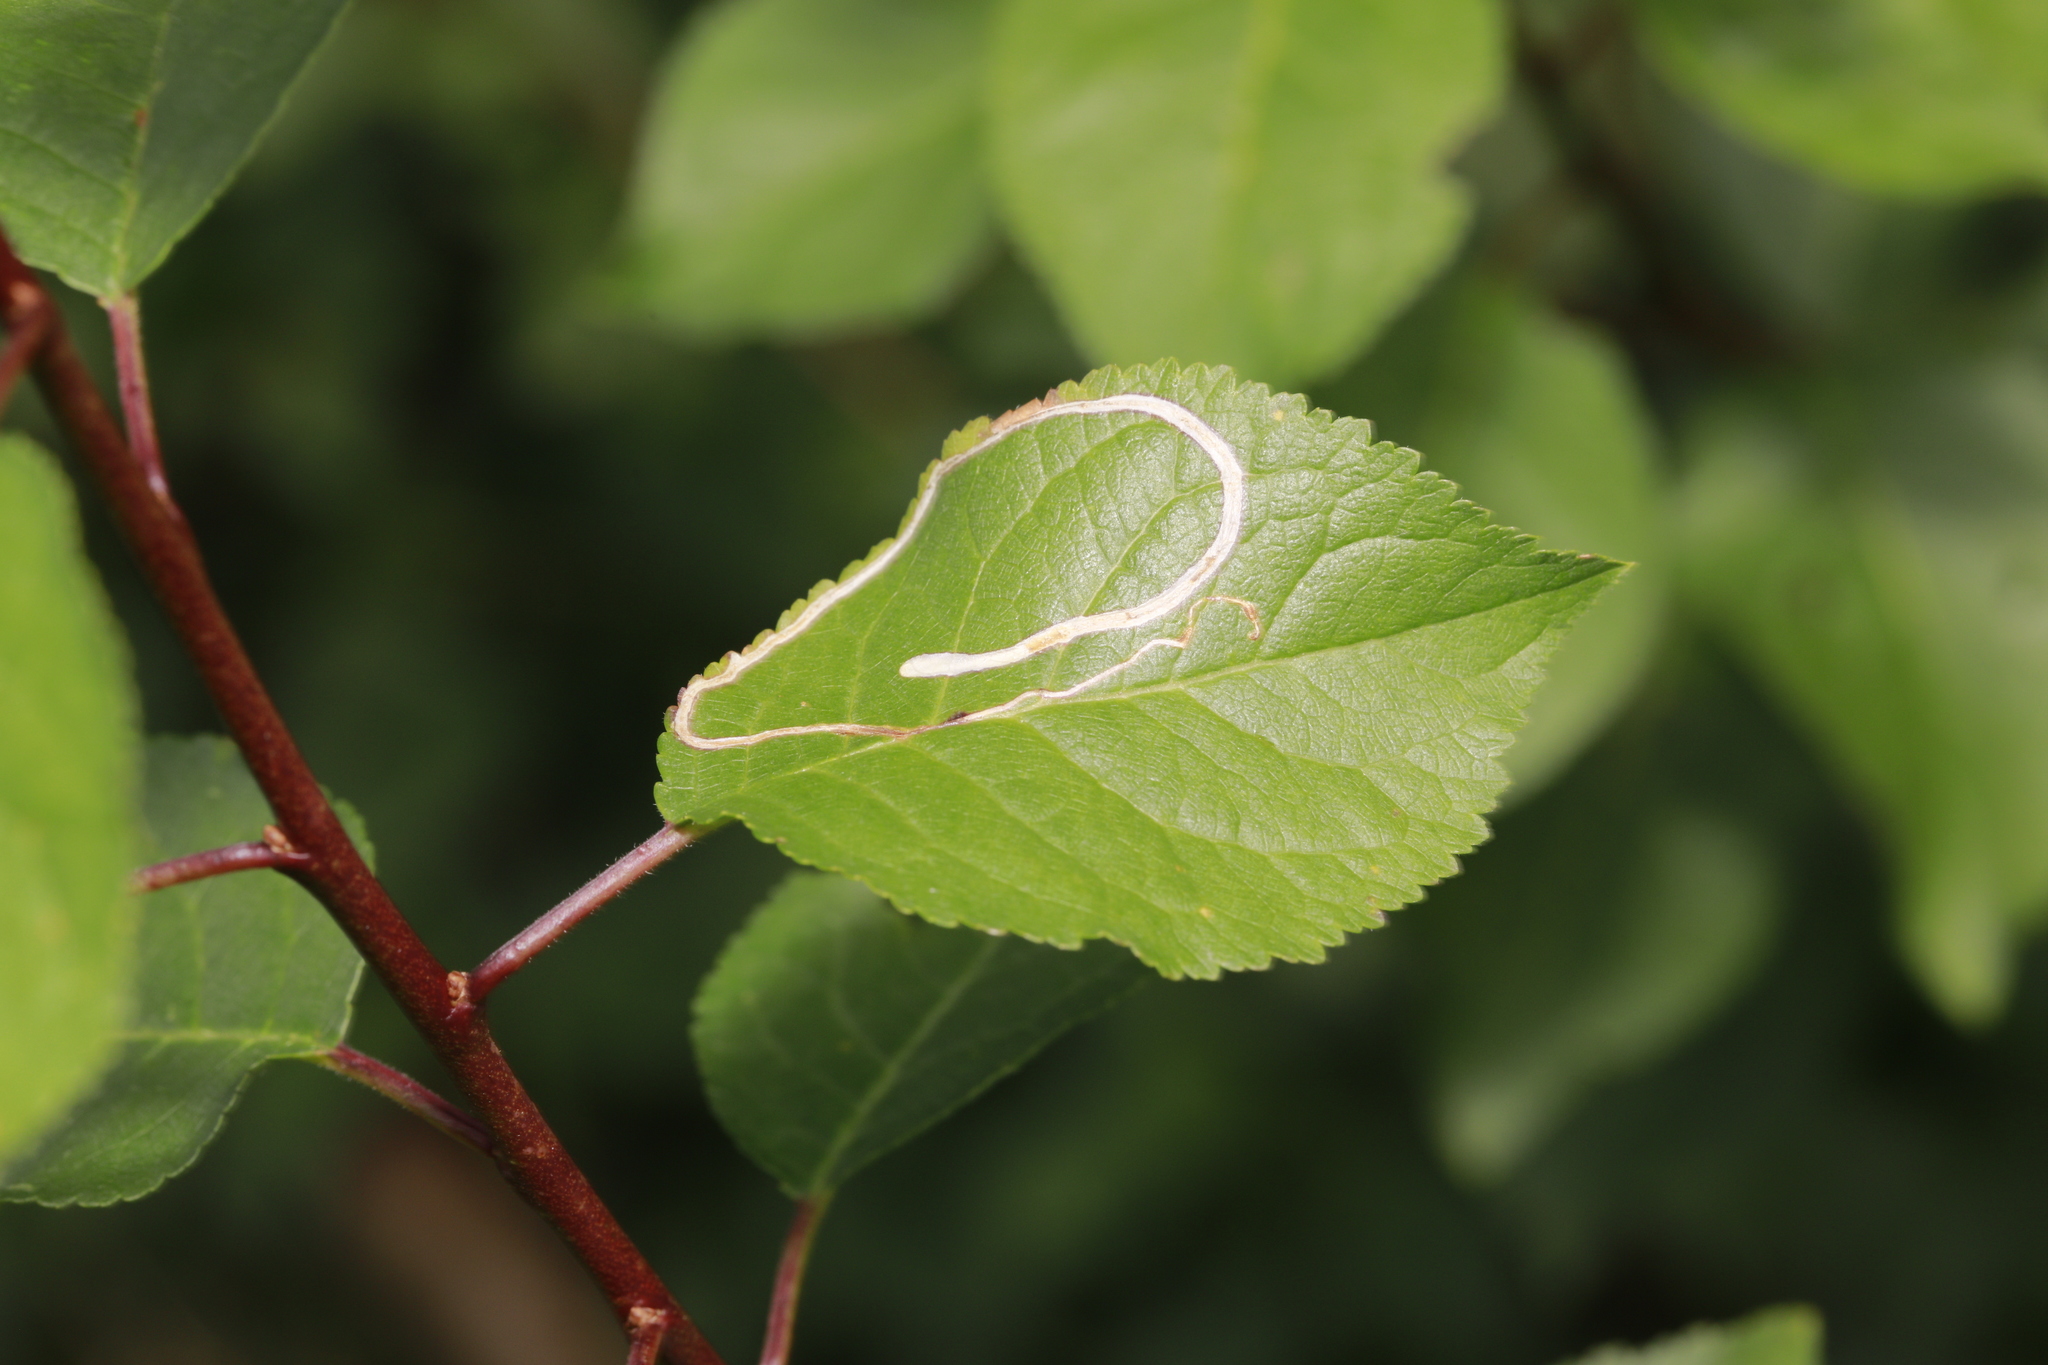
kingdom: Plantae
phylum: Tracheophyta
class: Magnoliopsida
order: Rosales
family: Rosaceae
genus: Prunus
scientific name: Prunus spinosa
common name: Blackthorn
